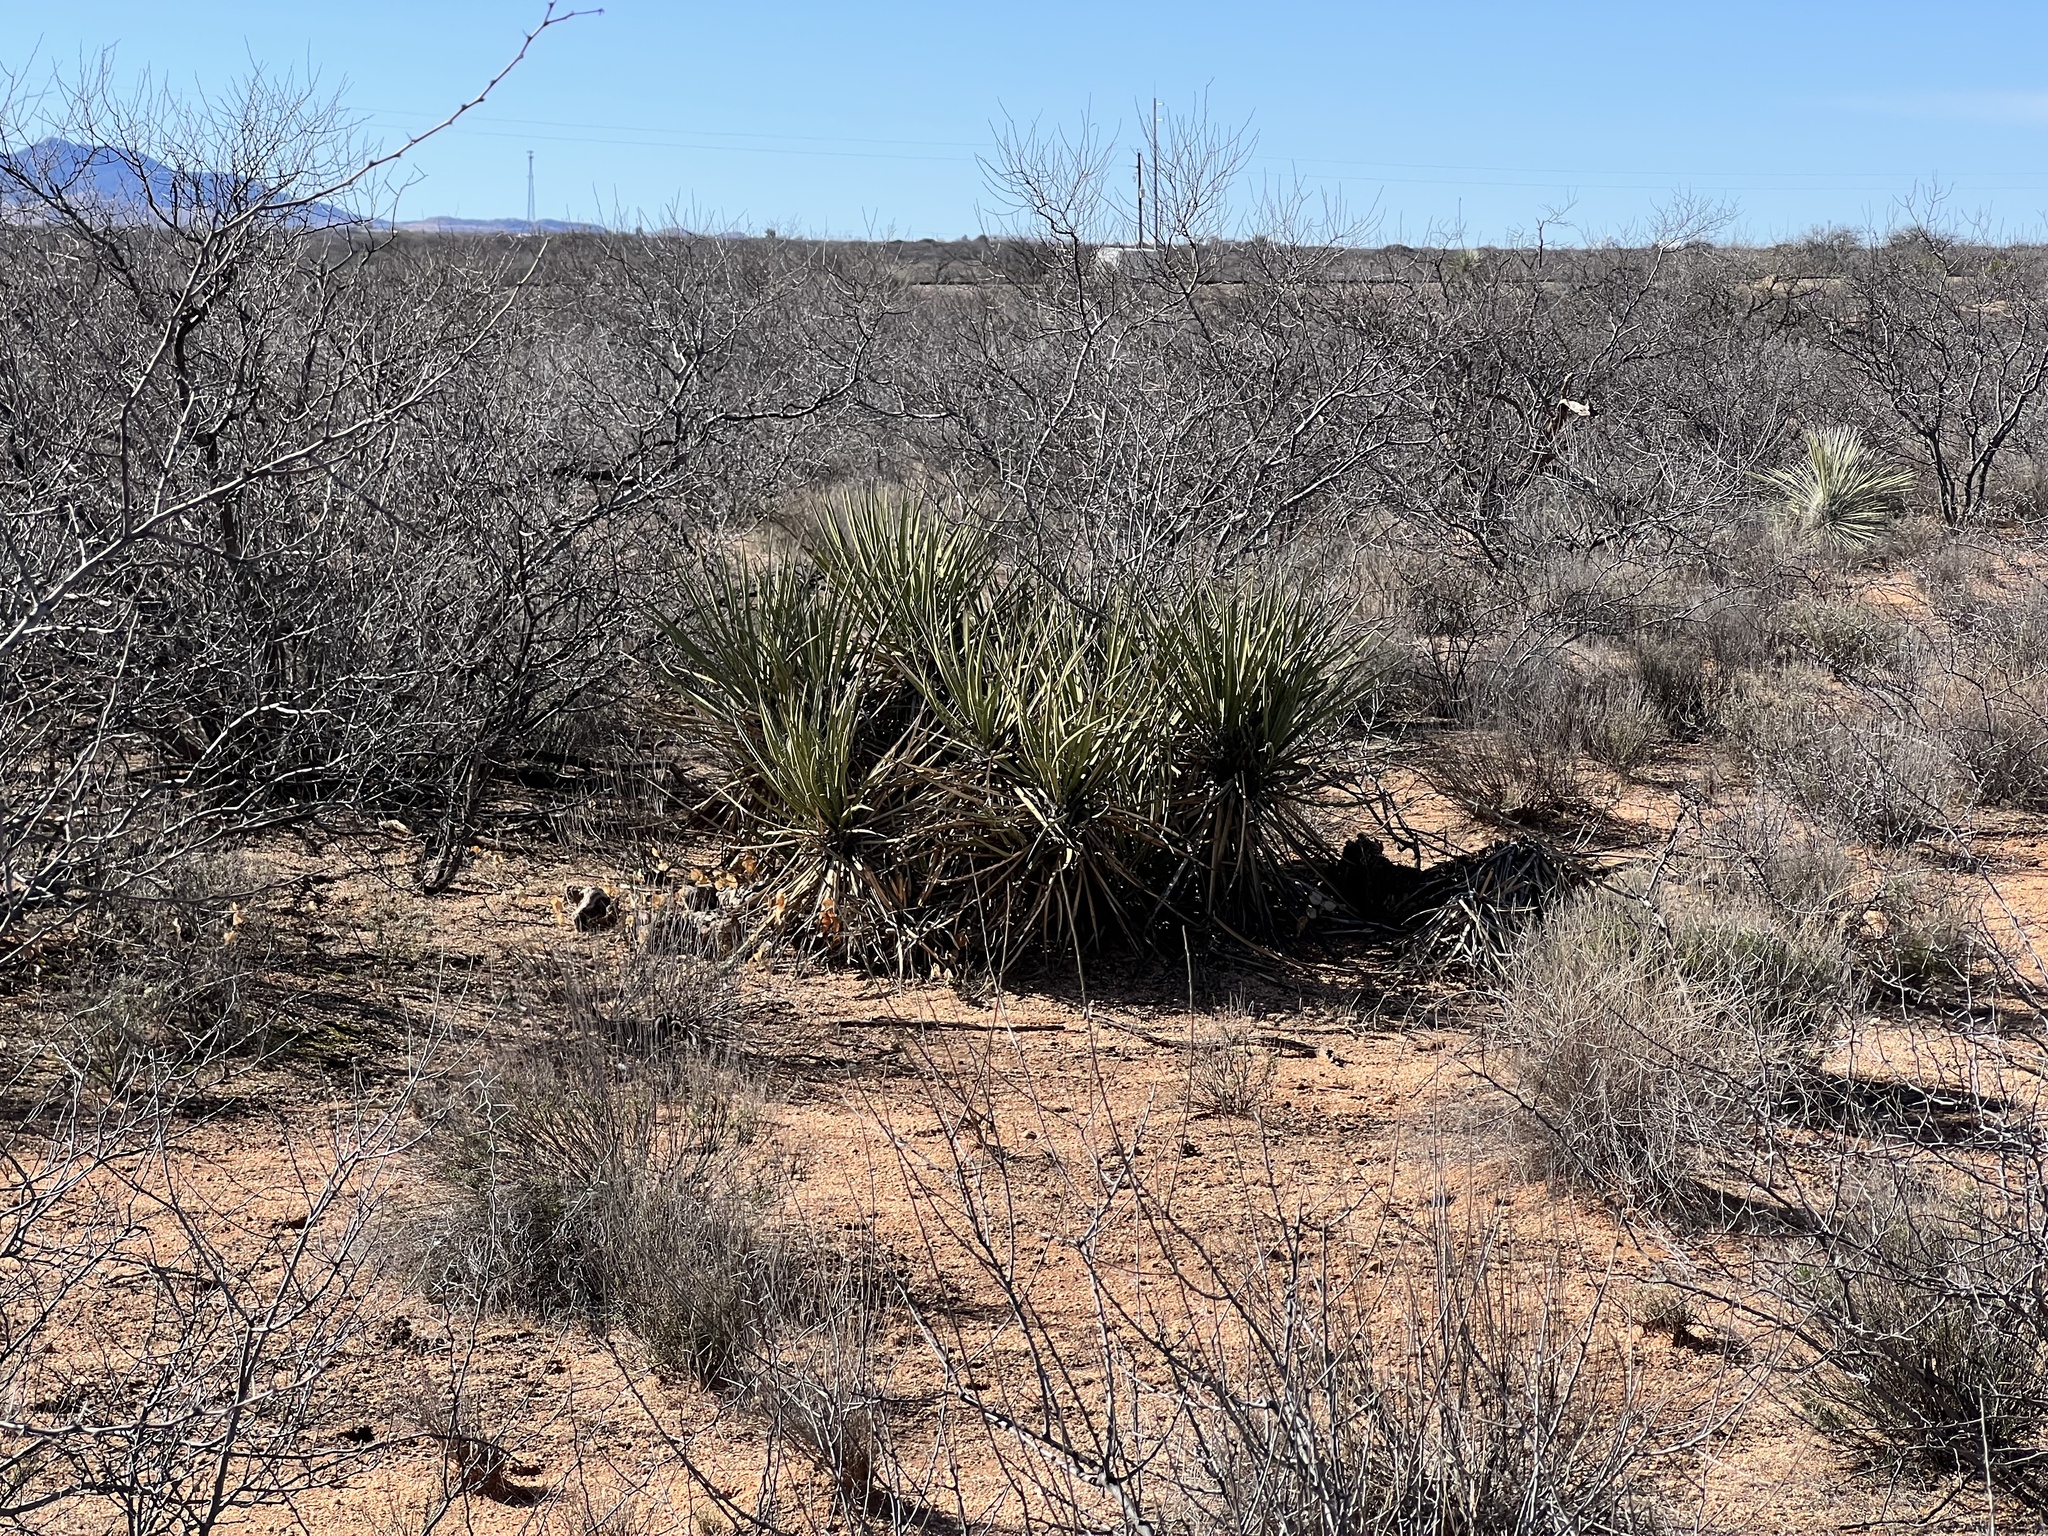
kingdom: Plantae
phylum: Tracheophyta
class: Liliopsida
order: Asparagales
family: Asparagaceae
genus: Yucca
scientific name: Yucca baccata
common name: Banana yucca
